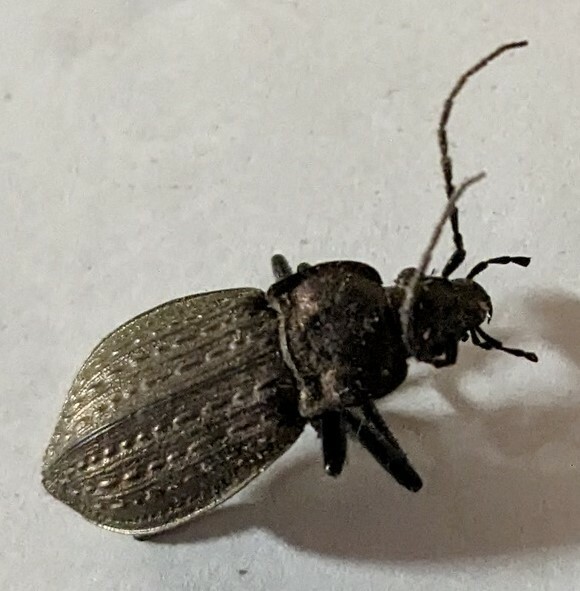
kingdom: Animalia
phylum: Arthropoda
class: Insecta
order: Coleoptera
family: Carabidae
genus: Carabus
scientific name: Carabus granulatus
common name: Granulate ground beetle
